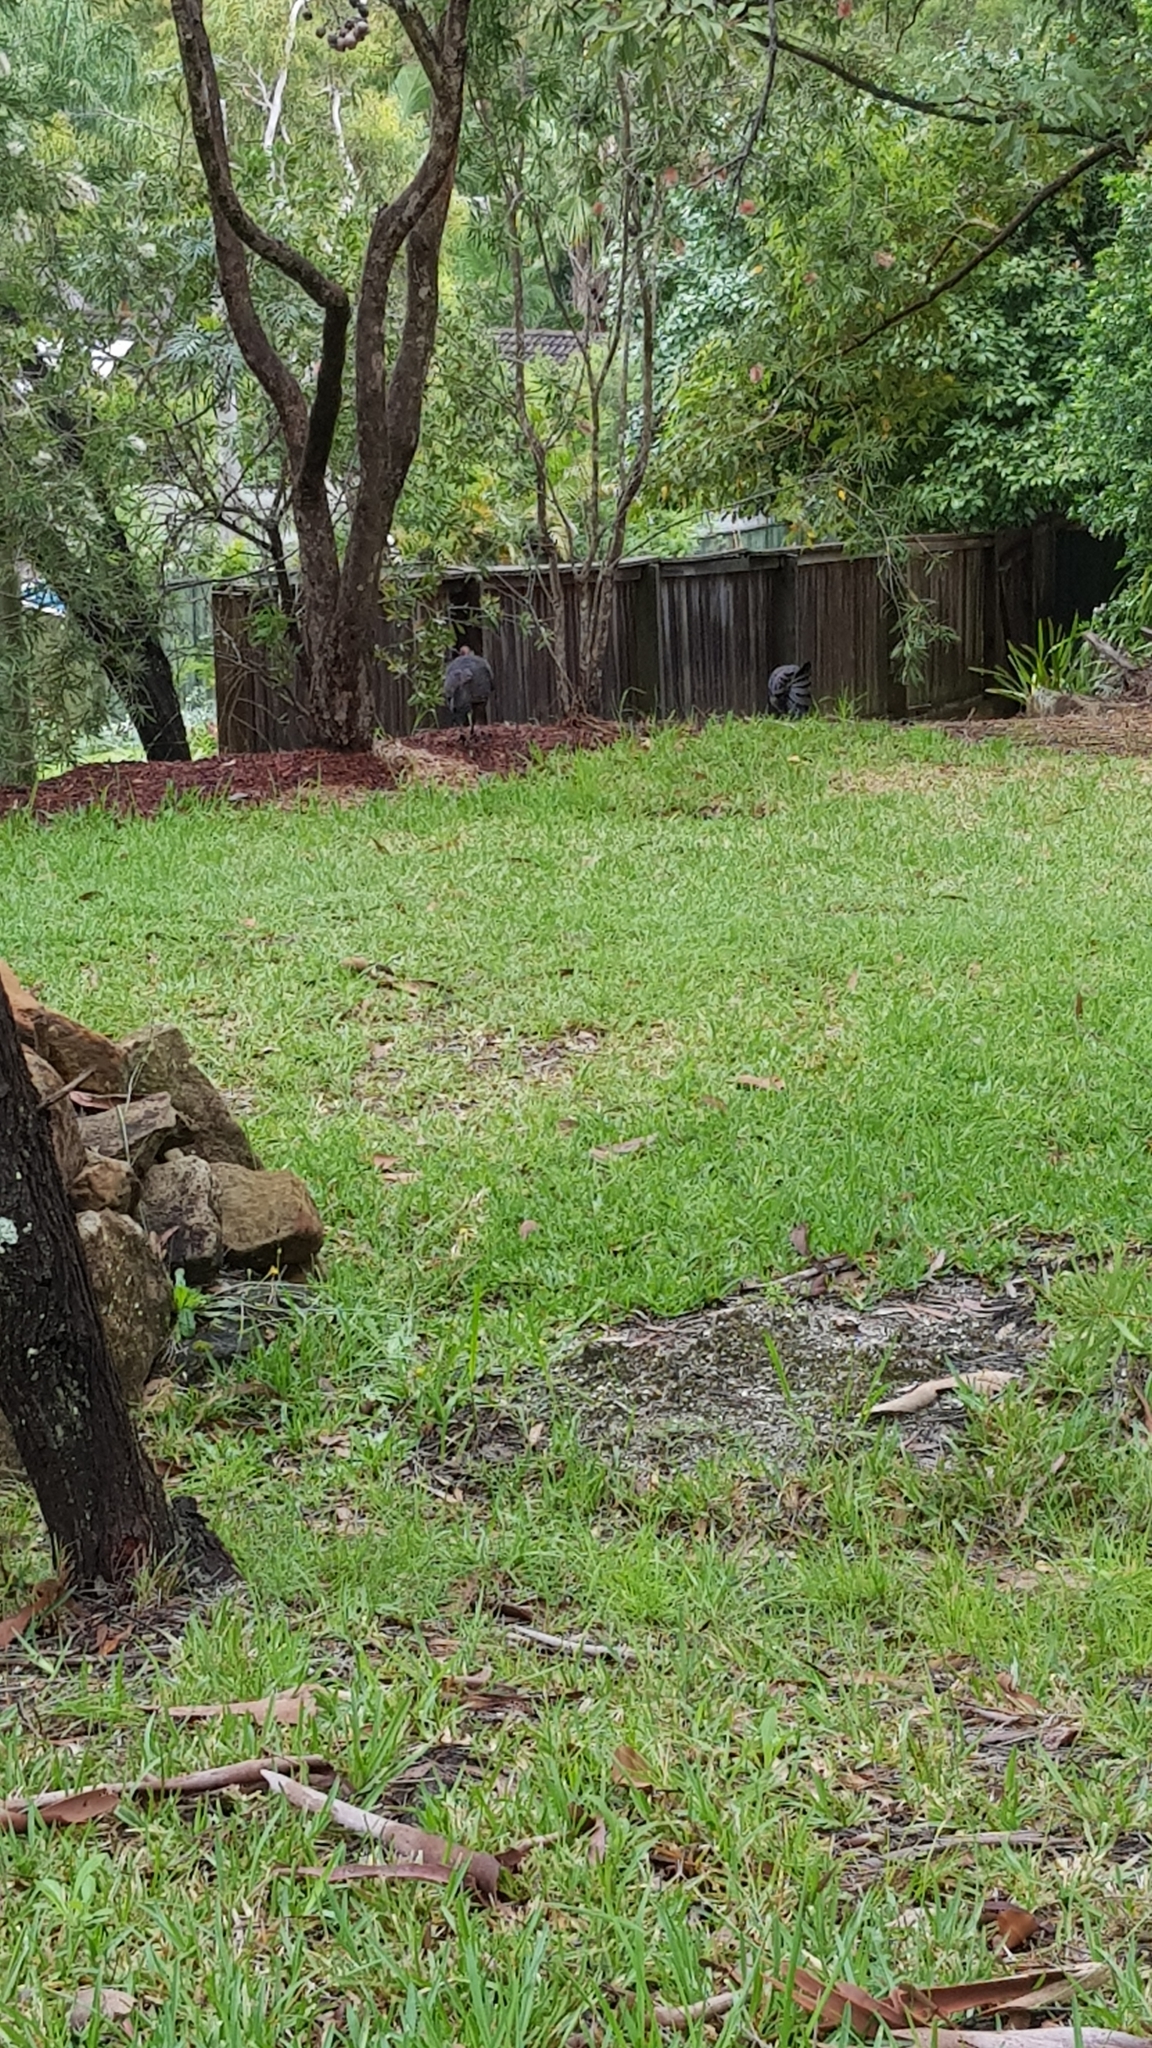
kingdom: Animalia
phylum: Chordata
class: Aves
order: Galliformes
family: Megapodiidae
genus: Alectura
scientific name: Alectura lathami
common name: Australian brushturkey
